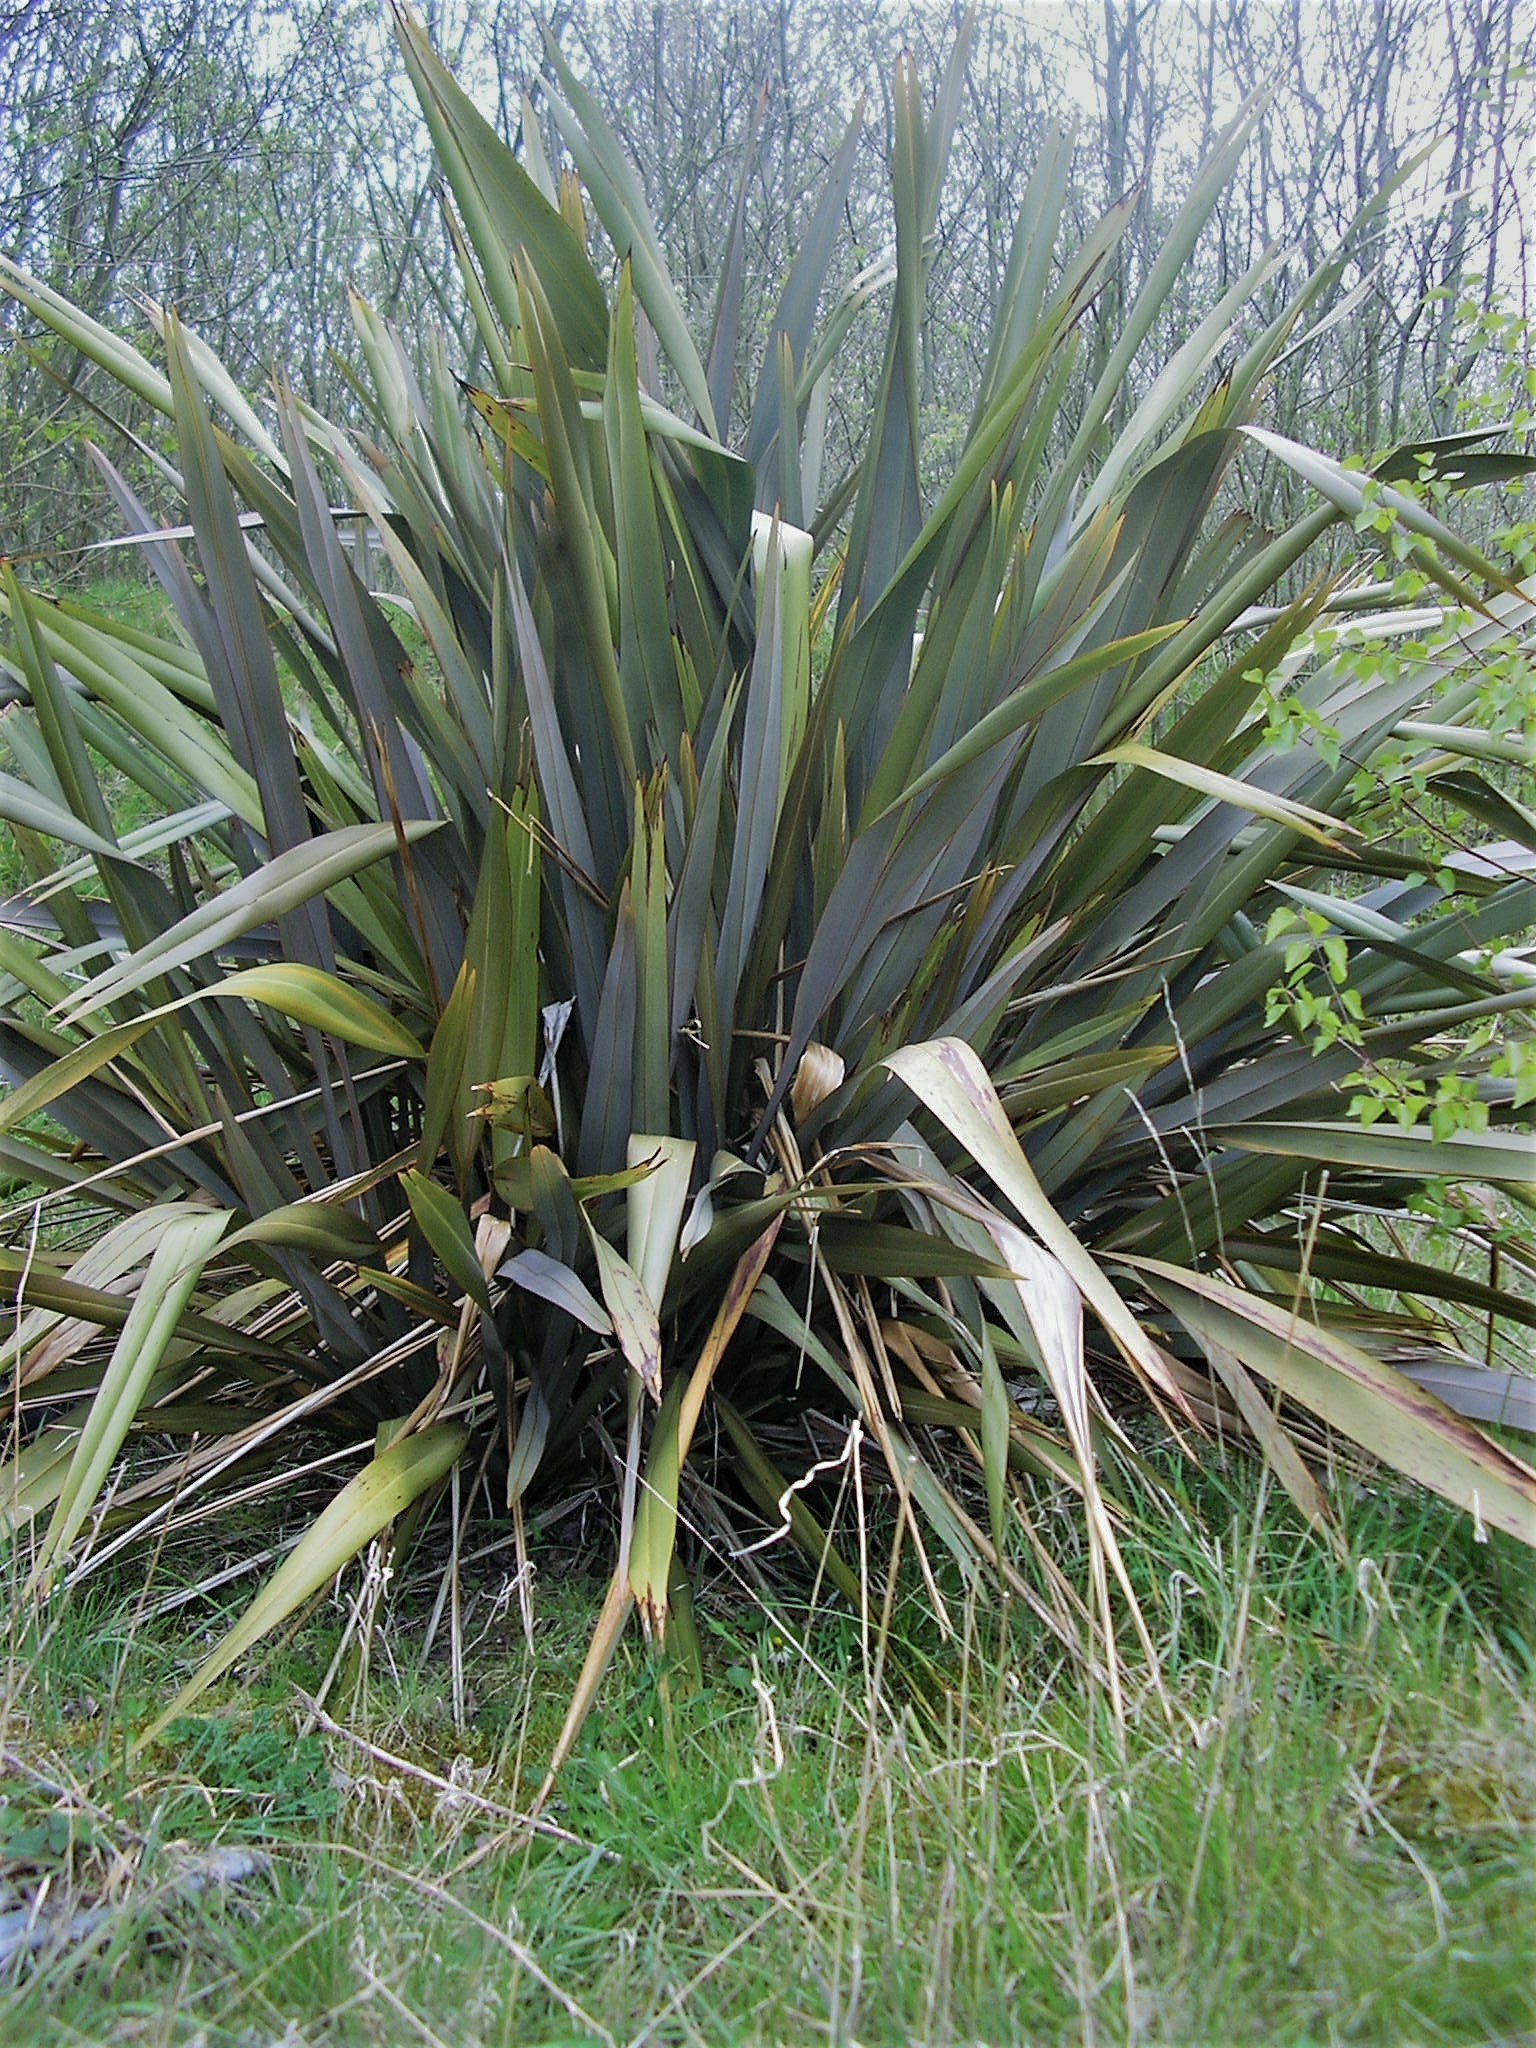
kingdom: Plantae
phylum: Tracheophyta
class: Liliopsida
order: Asparagales
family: Asphodelaceae
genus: Phormium
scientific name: Phormium tenax
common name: New zealand flax
